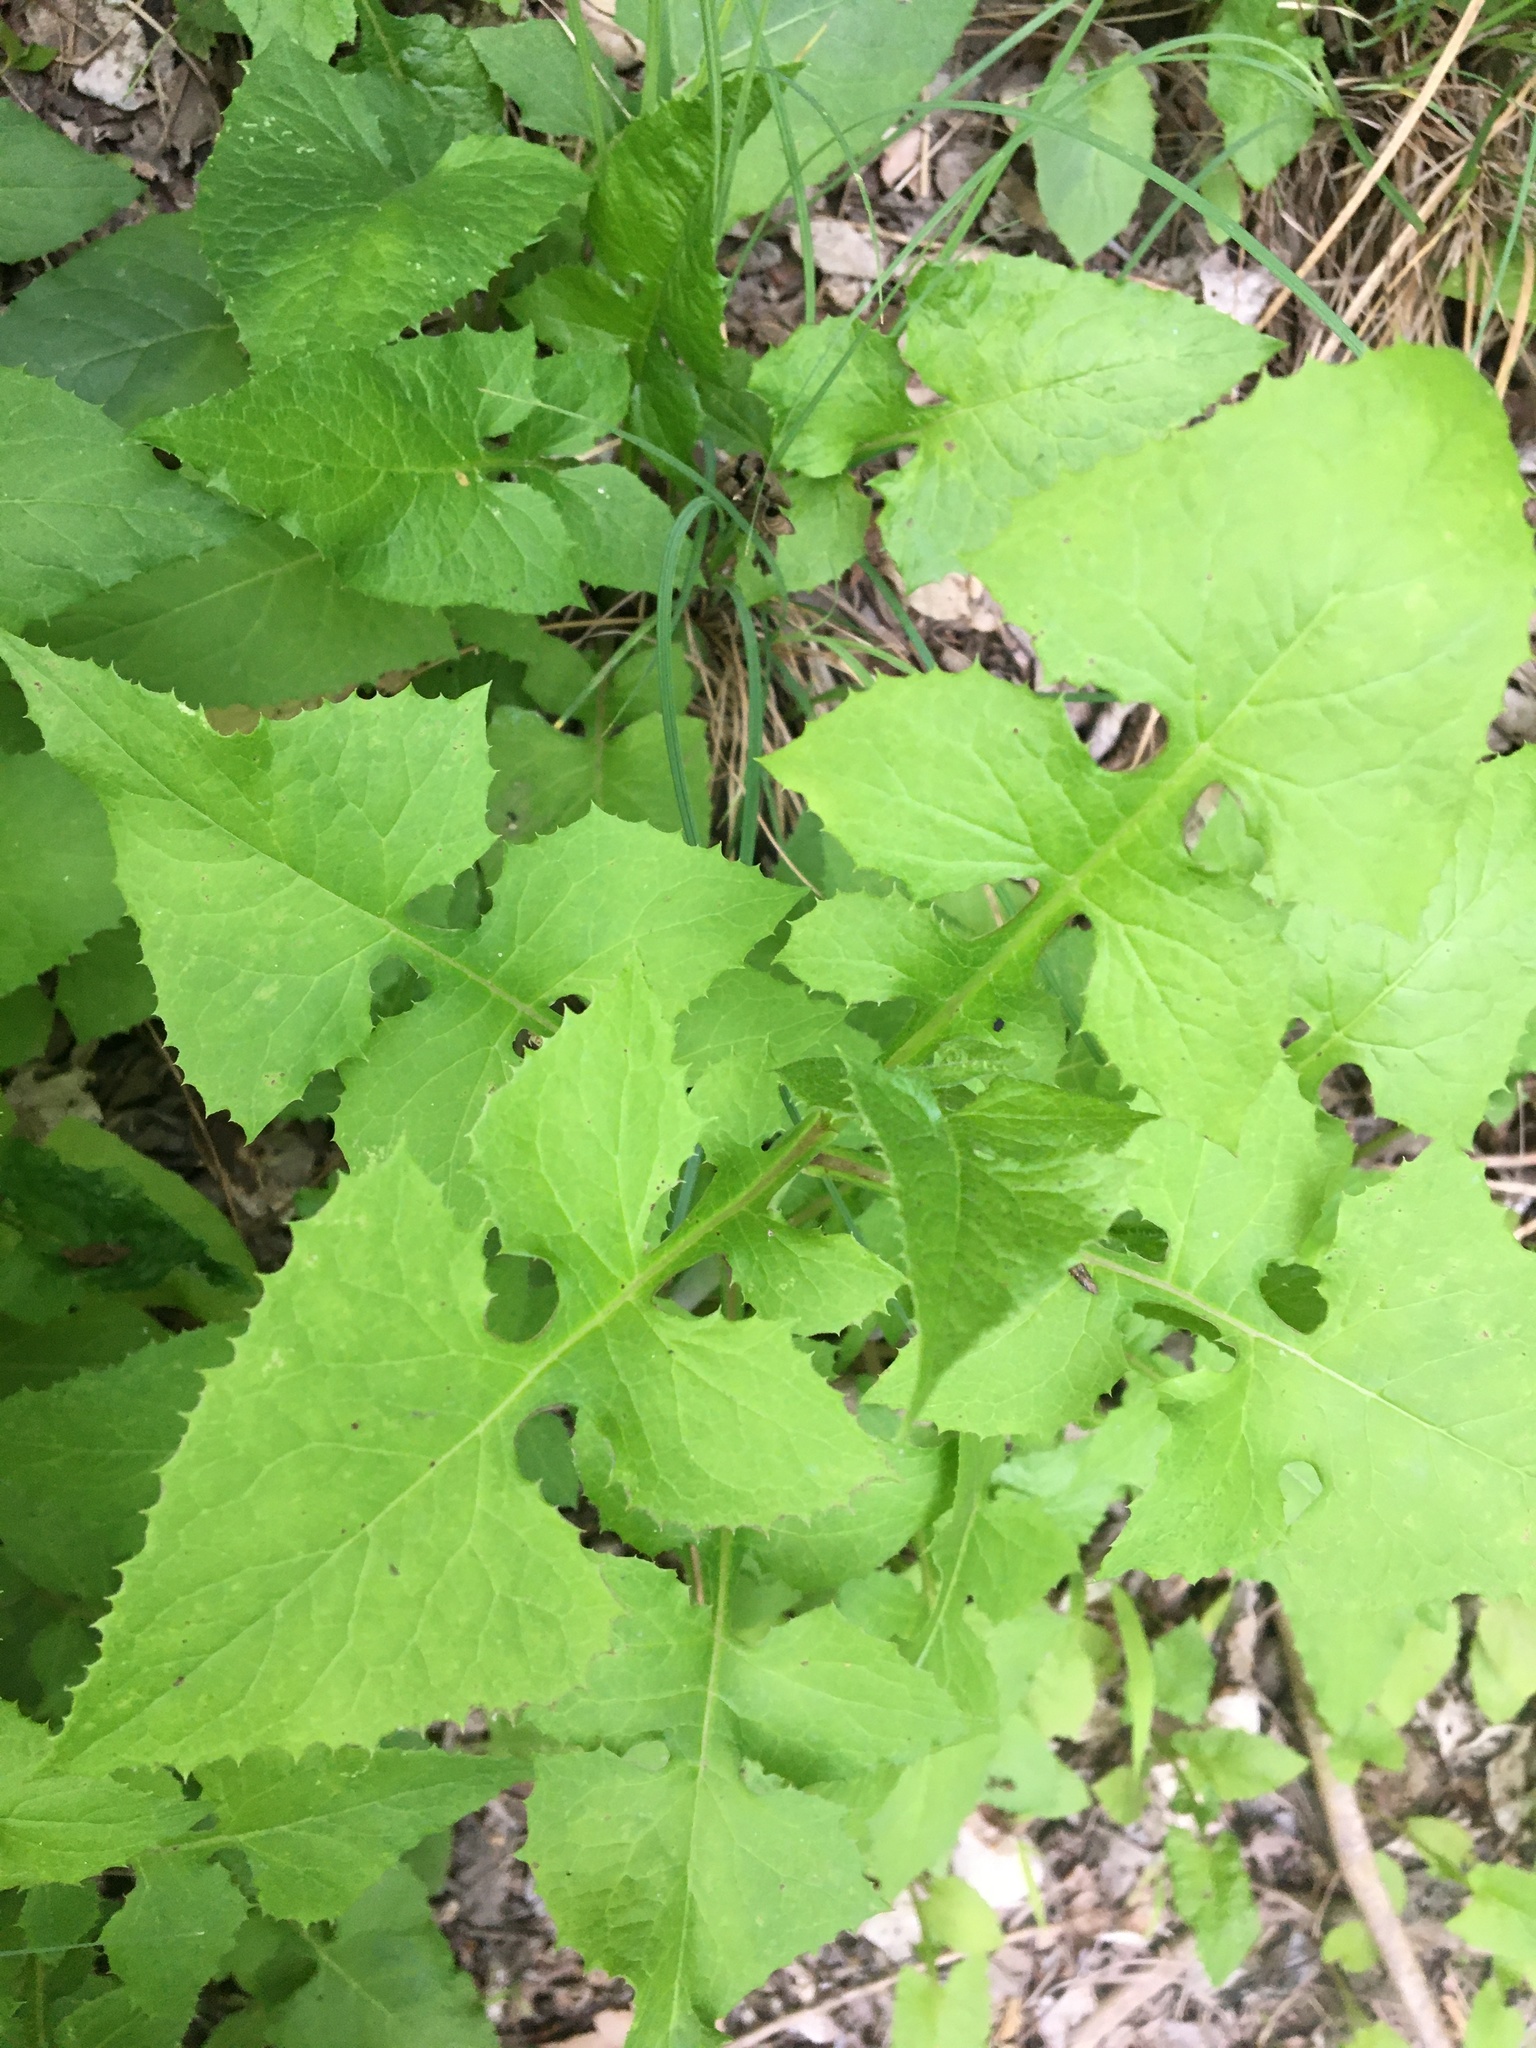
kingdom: Plantae
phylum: Tracheophyta
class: Magnoliopsida
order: Asterales
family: Asteraceae
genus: Lactuca
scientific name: Lactuca floridana
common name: Woodland lettuce
